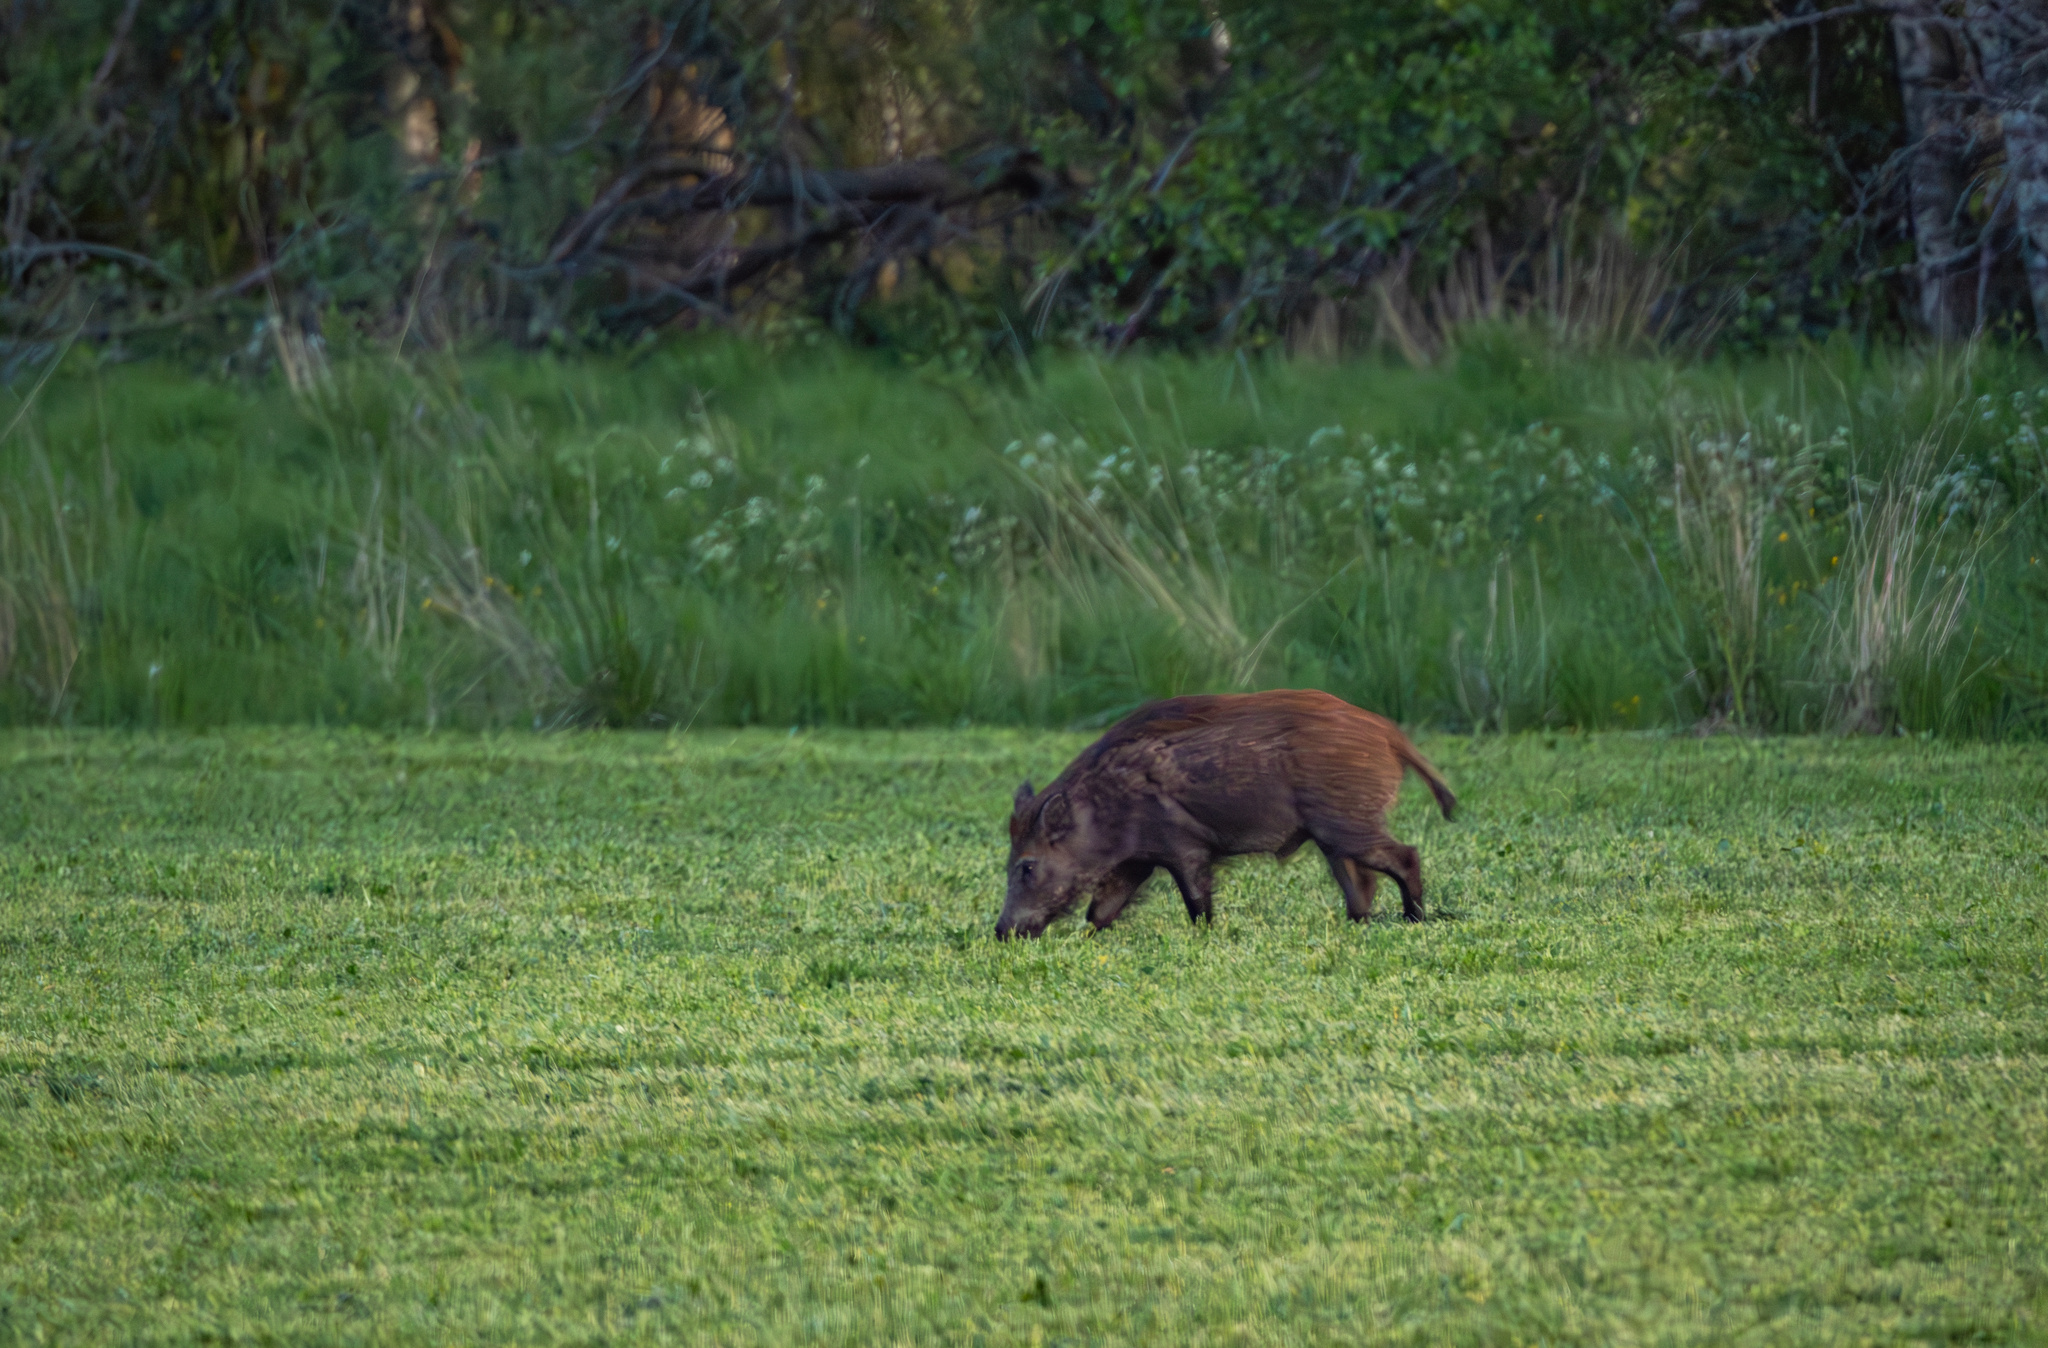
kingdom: Animalia
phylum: Chordata
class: Mammalia
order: Artiodactyla
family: Suidae
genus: Sus
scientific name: Sus scrofa
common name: Wild boar
